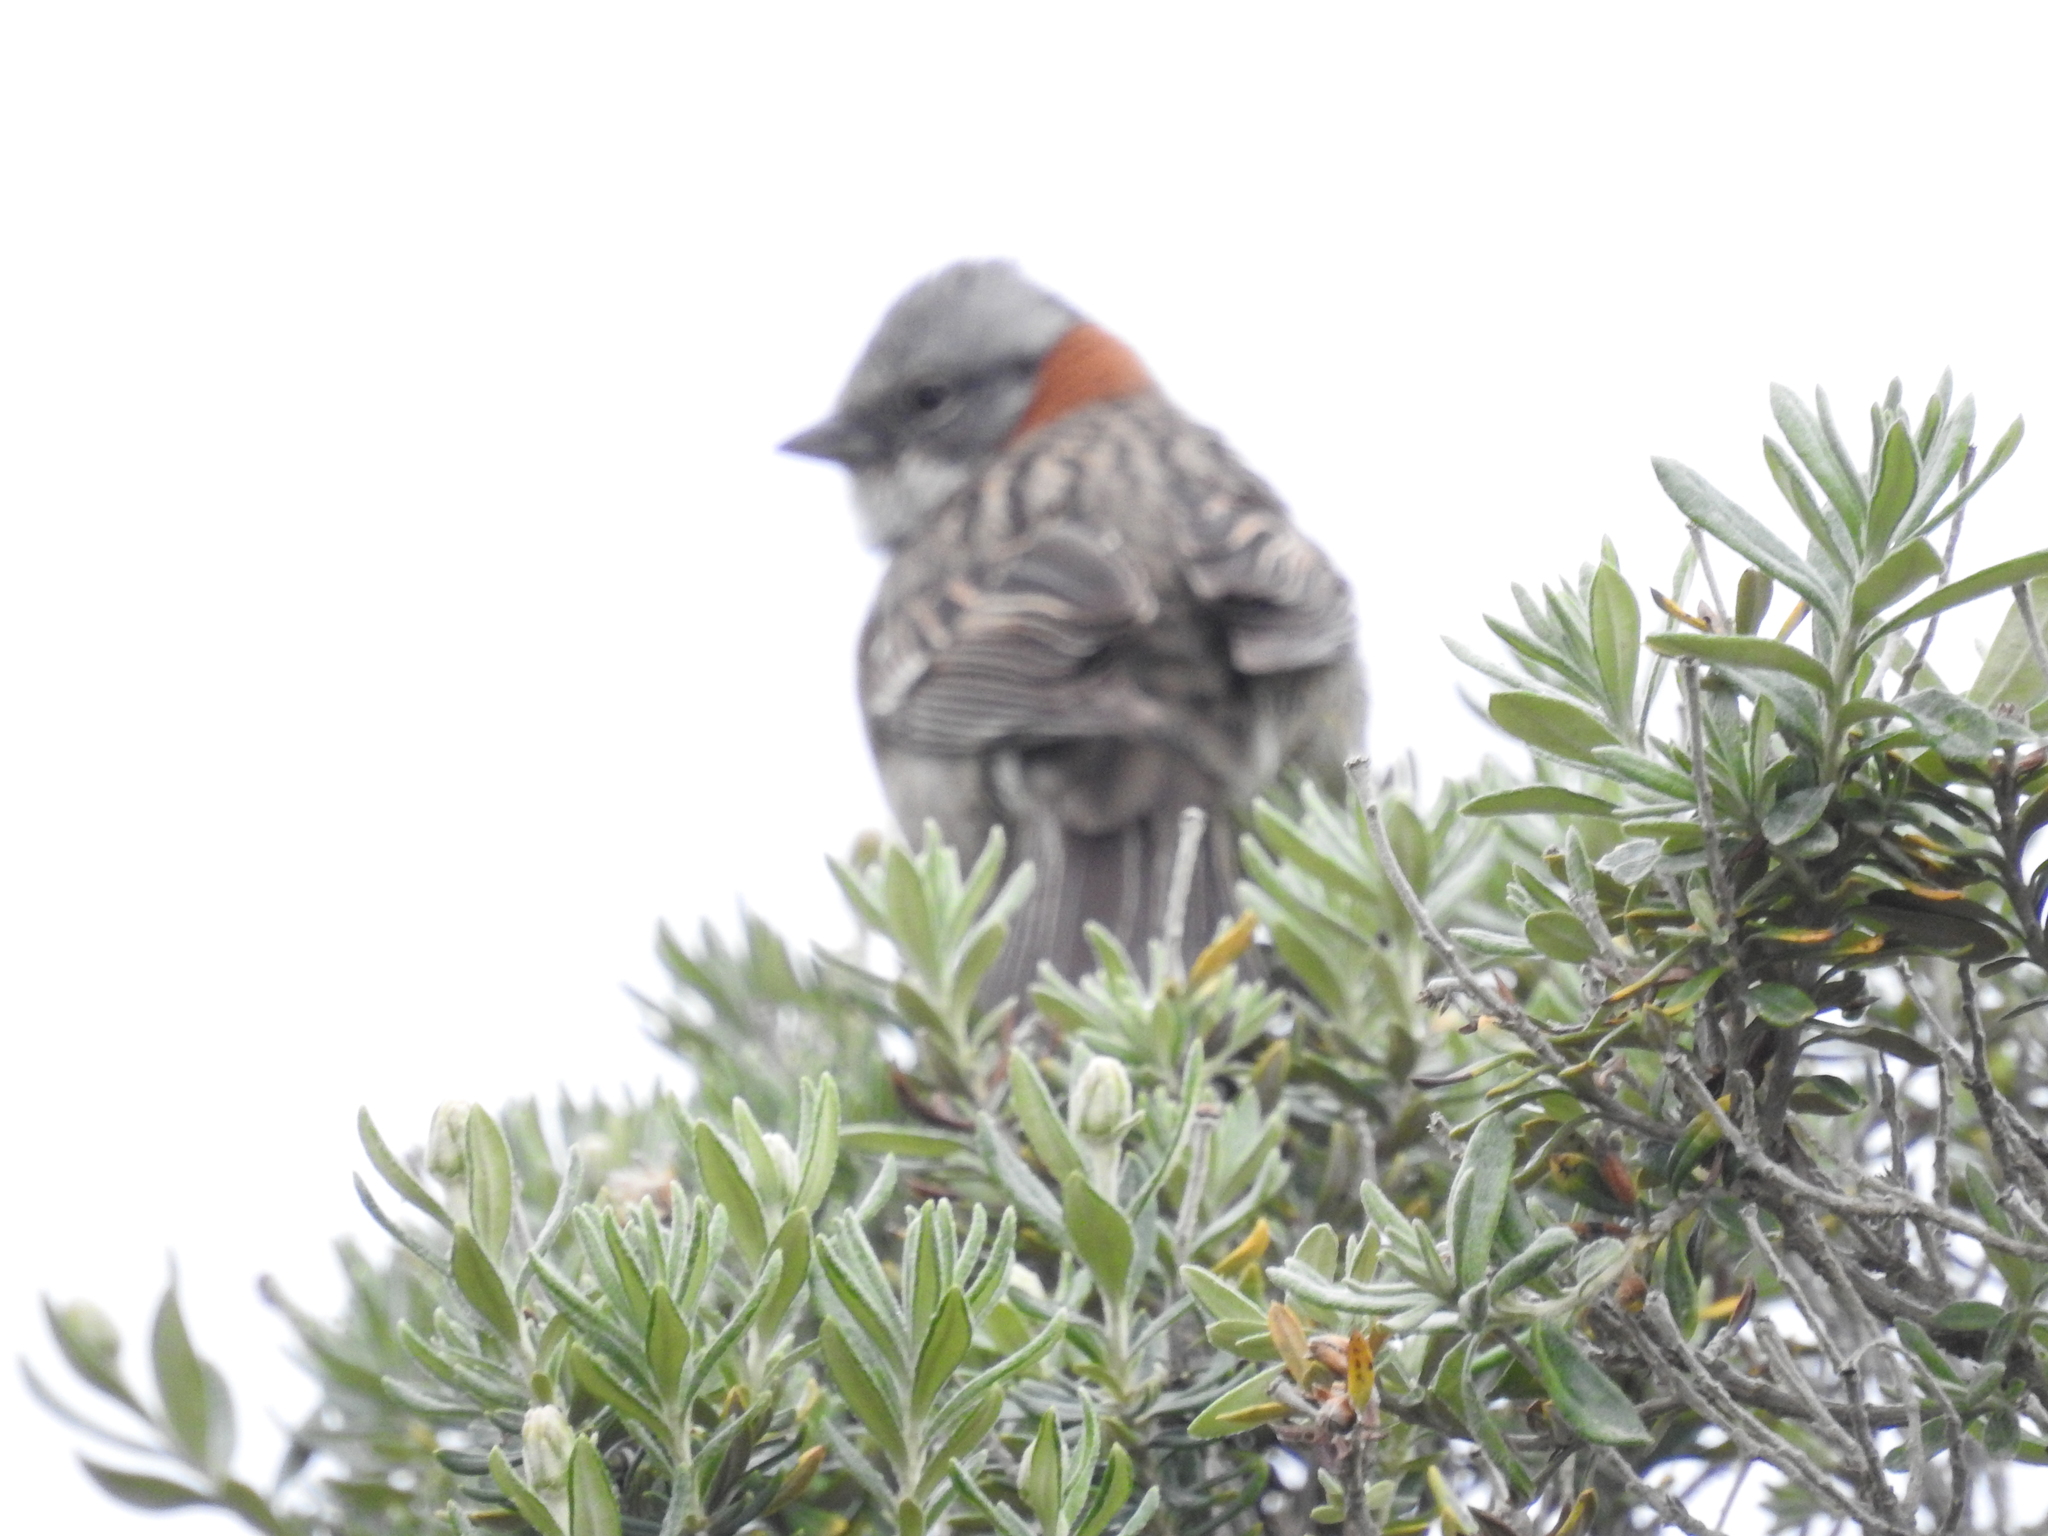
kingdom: Animalia
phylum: Chordata
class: Aves
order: Passeriformes
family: Passerellidae
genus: Zonotrichia
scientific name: Zonotrichia capensis
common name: Rufous-collared sparrow
